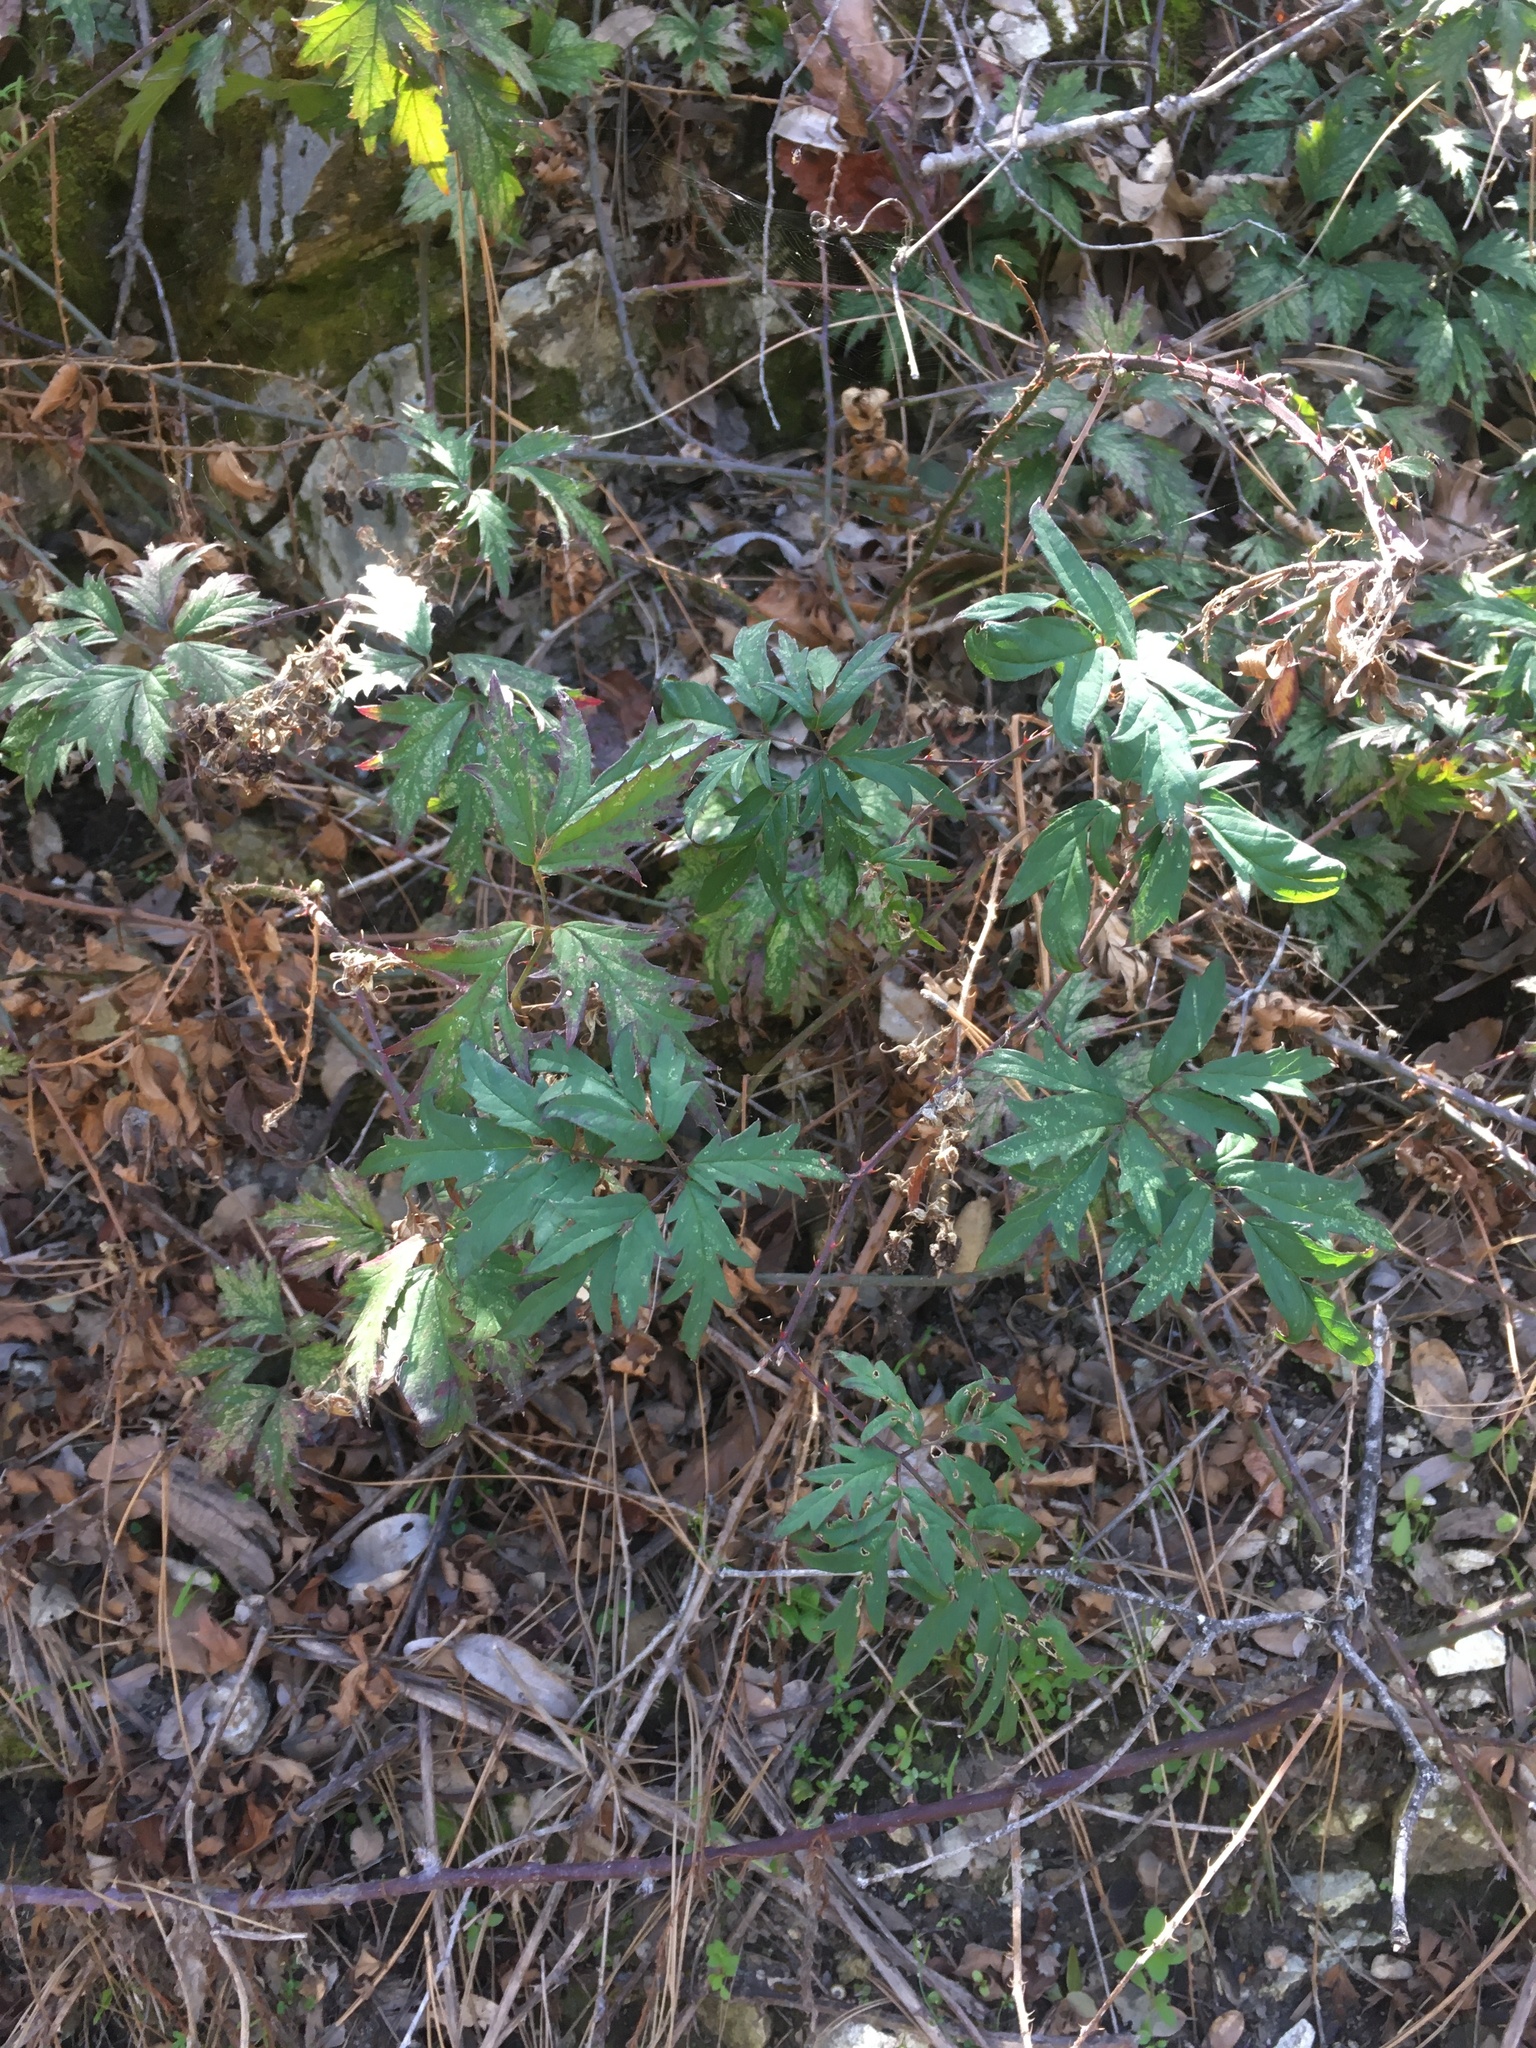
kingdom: Plantae
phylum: Tracheophyta
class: Magnoliopsida
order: Rosales
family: Rosaceae
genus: Rubus
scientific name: Rubus laciniatus
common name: Evergreen blackberry
